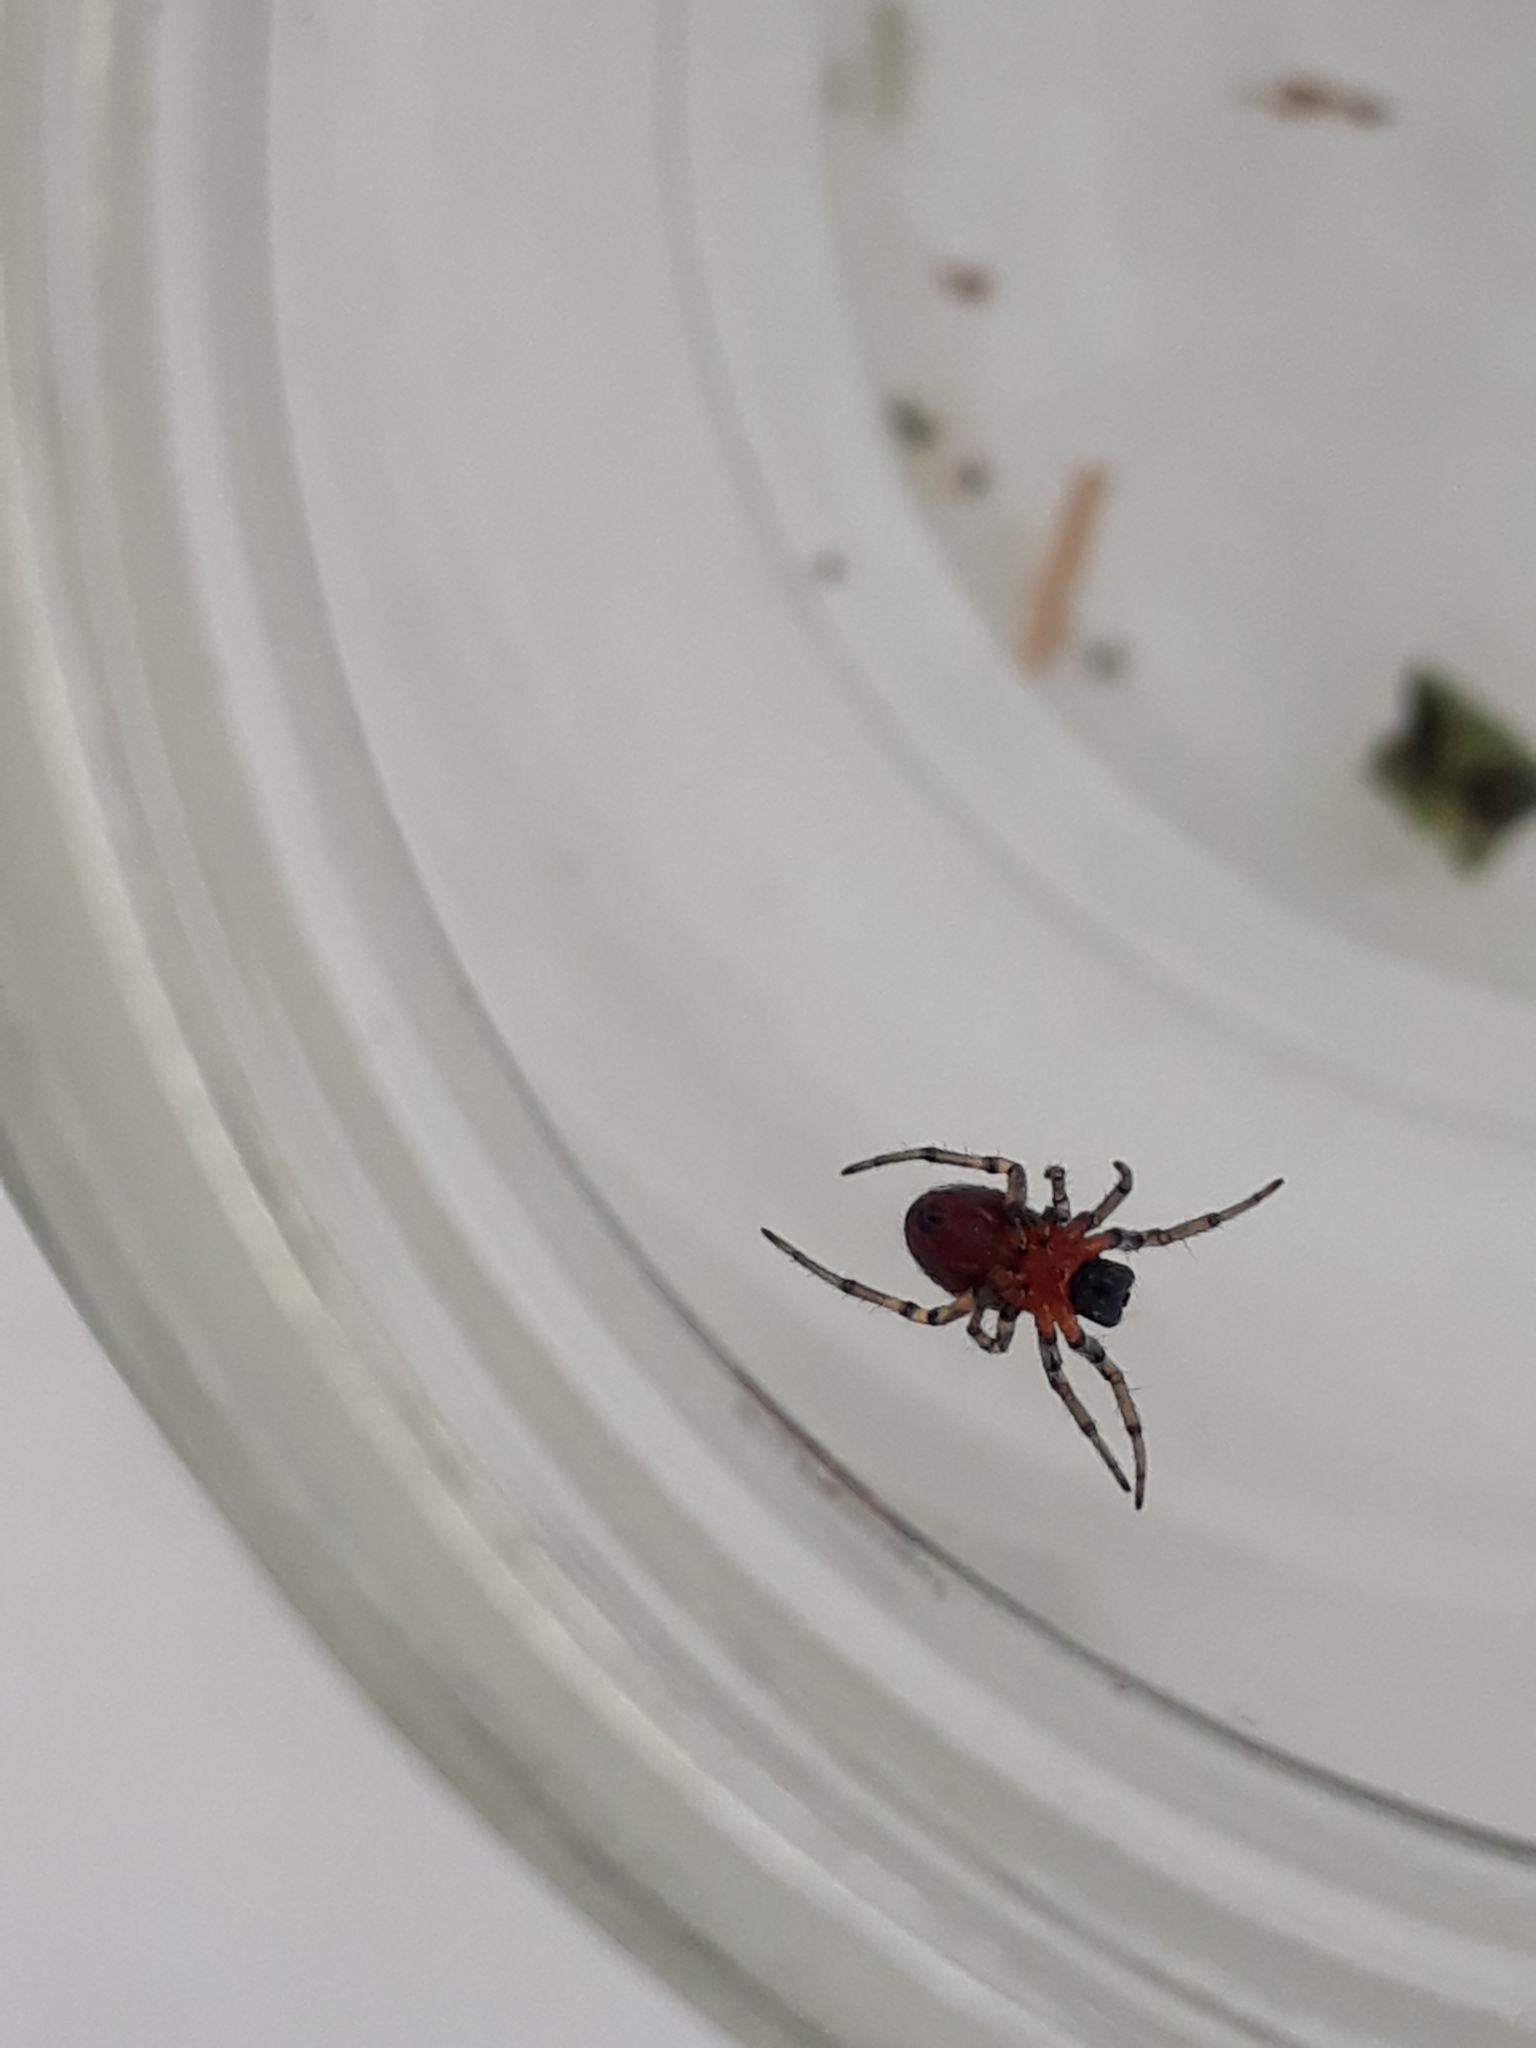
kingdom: Animalia
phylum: Arthropoda
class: Arachnida
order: Araneae
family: Araneidae
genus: Alpaida
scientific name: Alpaida versicolor
